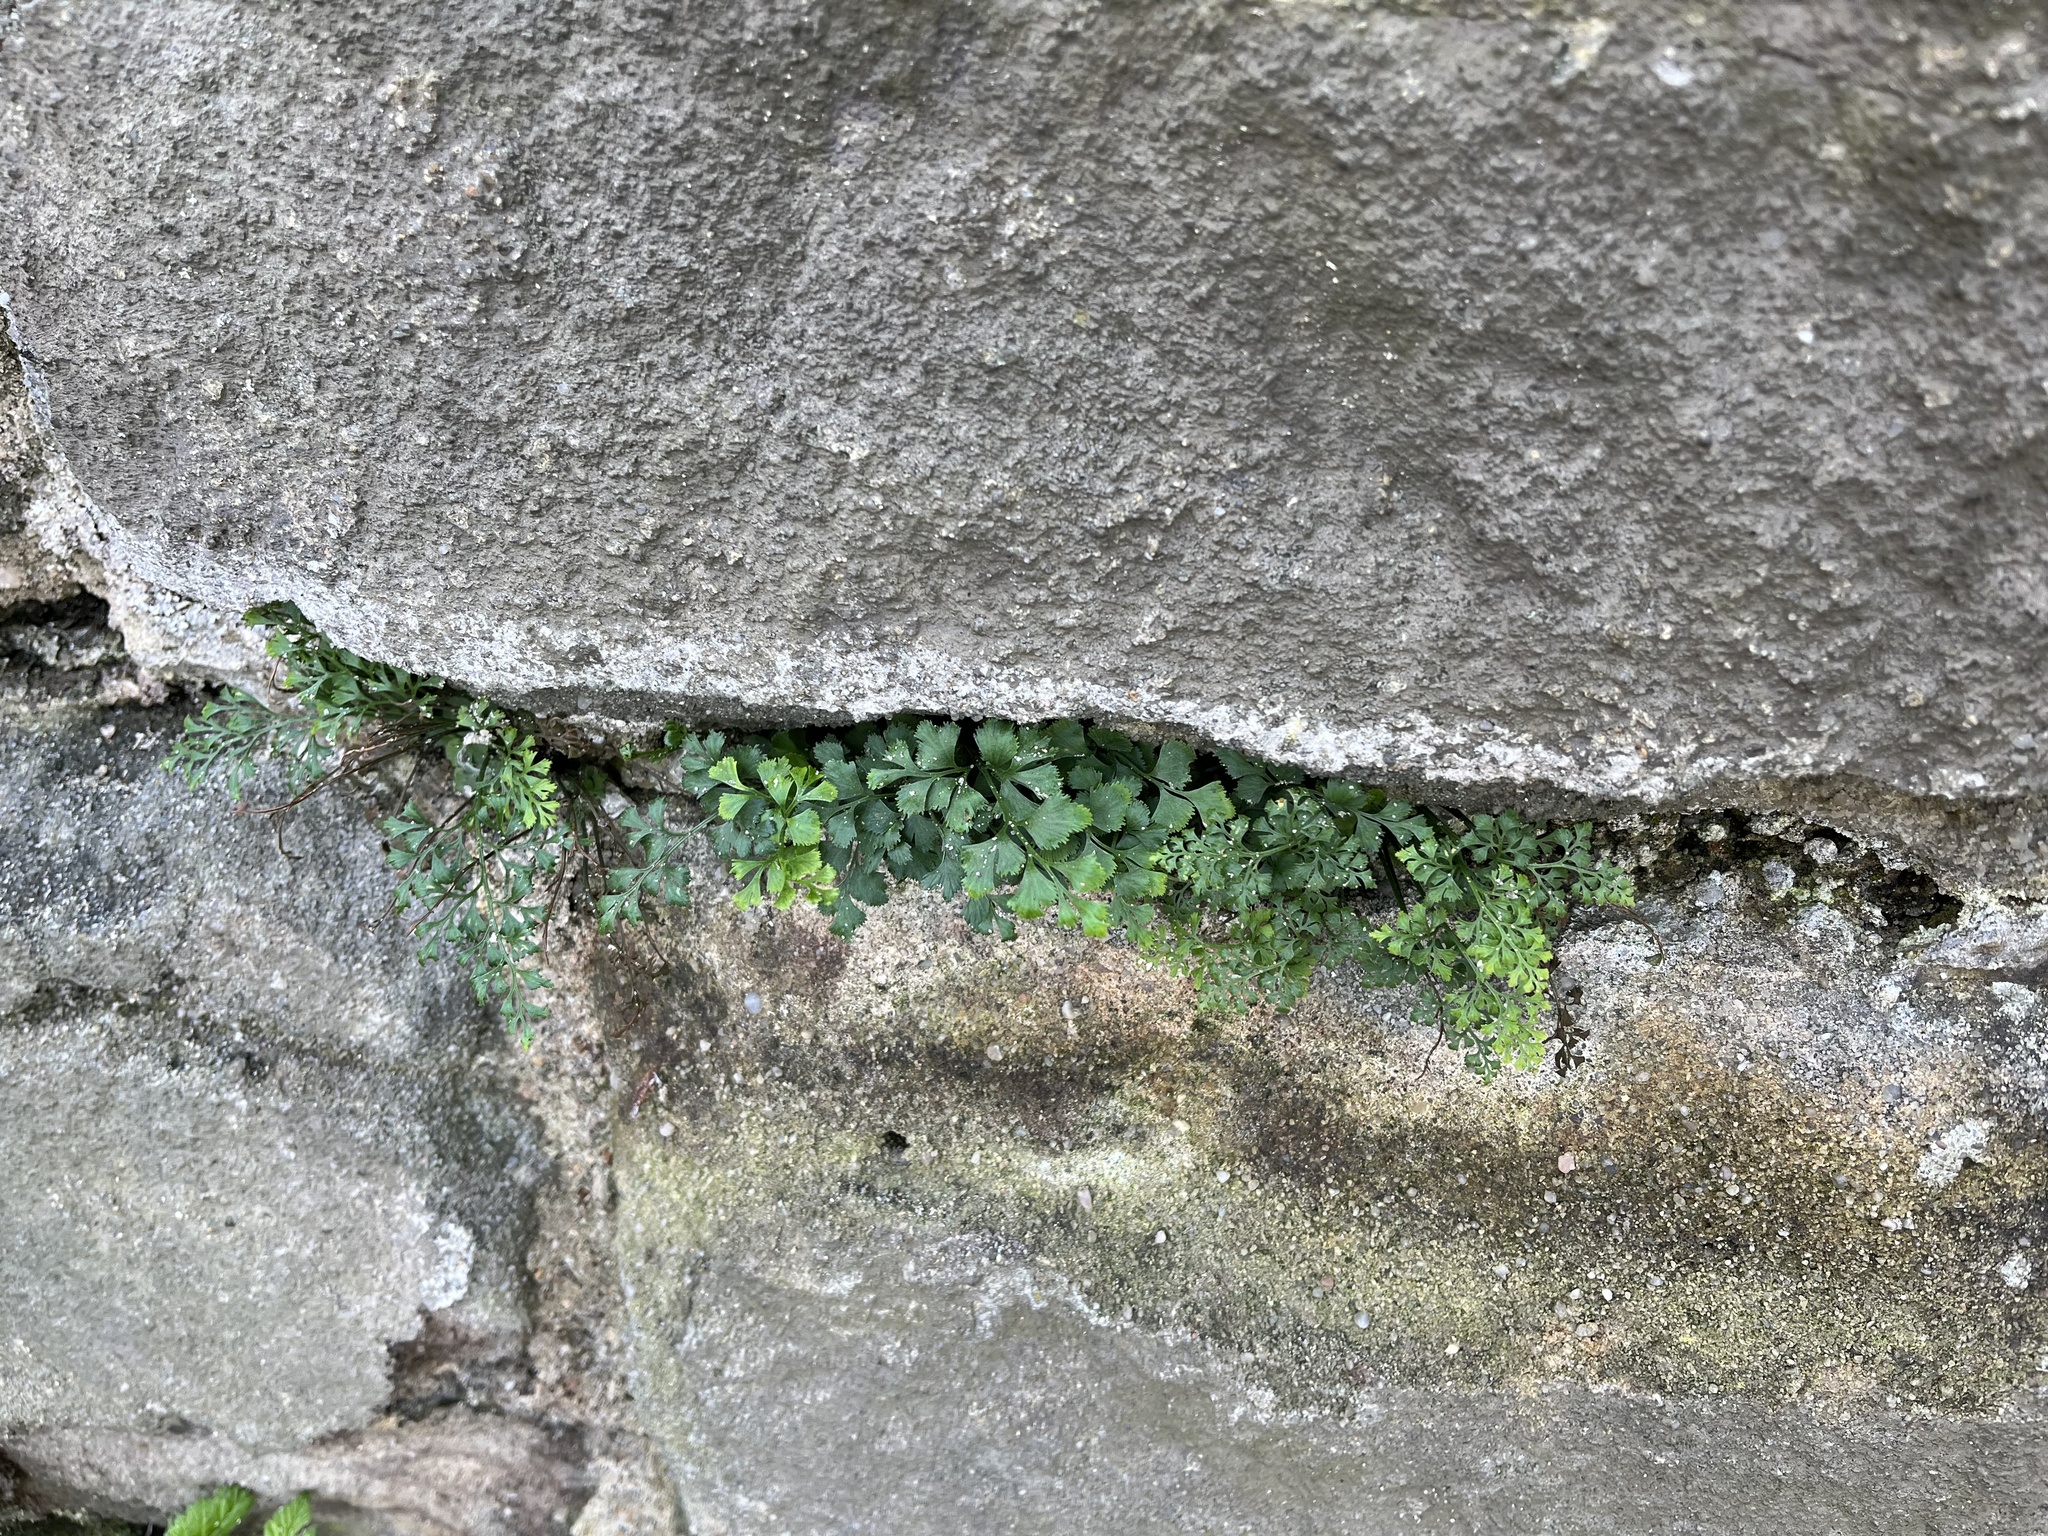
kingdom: Plantae
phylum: Tracheophyta
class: Polypodiopsida
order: Polypodiales
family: Aspleniaceae
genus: Asplenium
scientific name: Asplenium ruta-muraria
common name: Wall-rue
